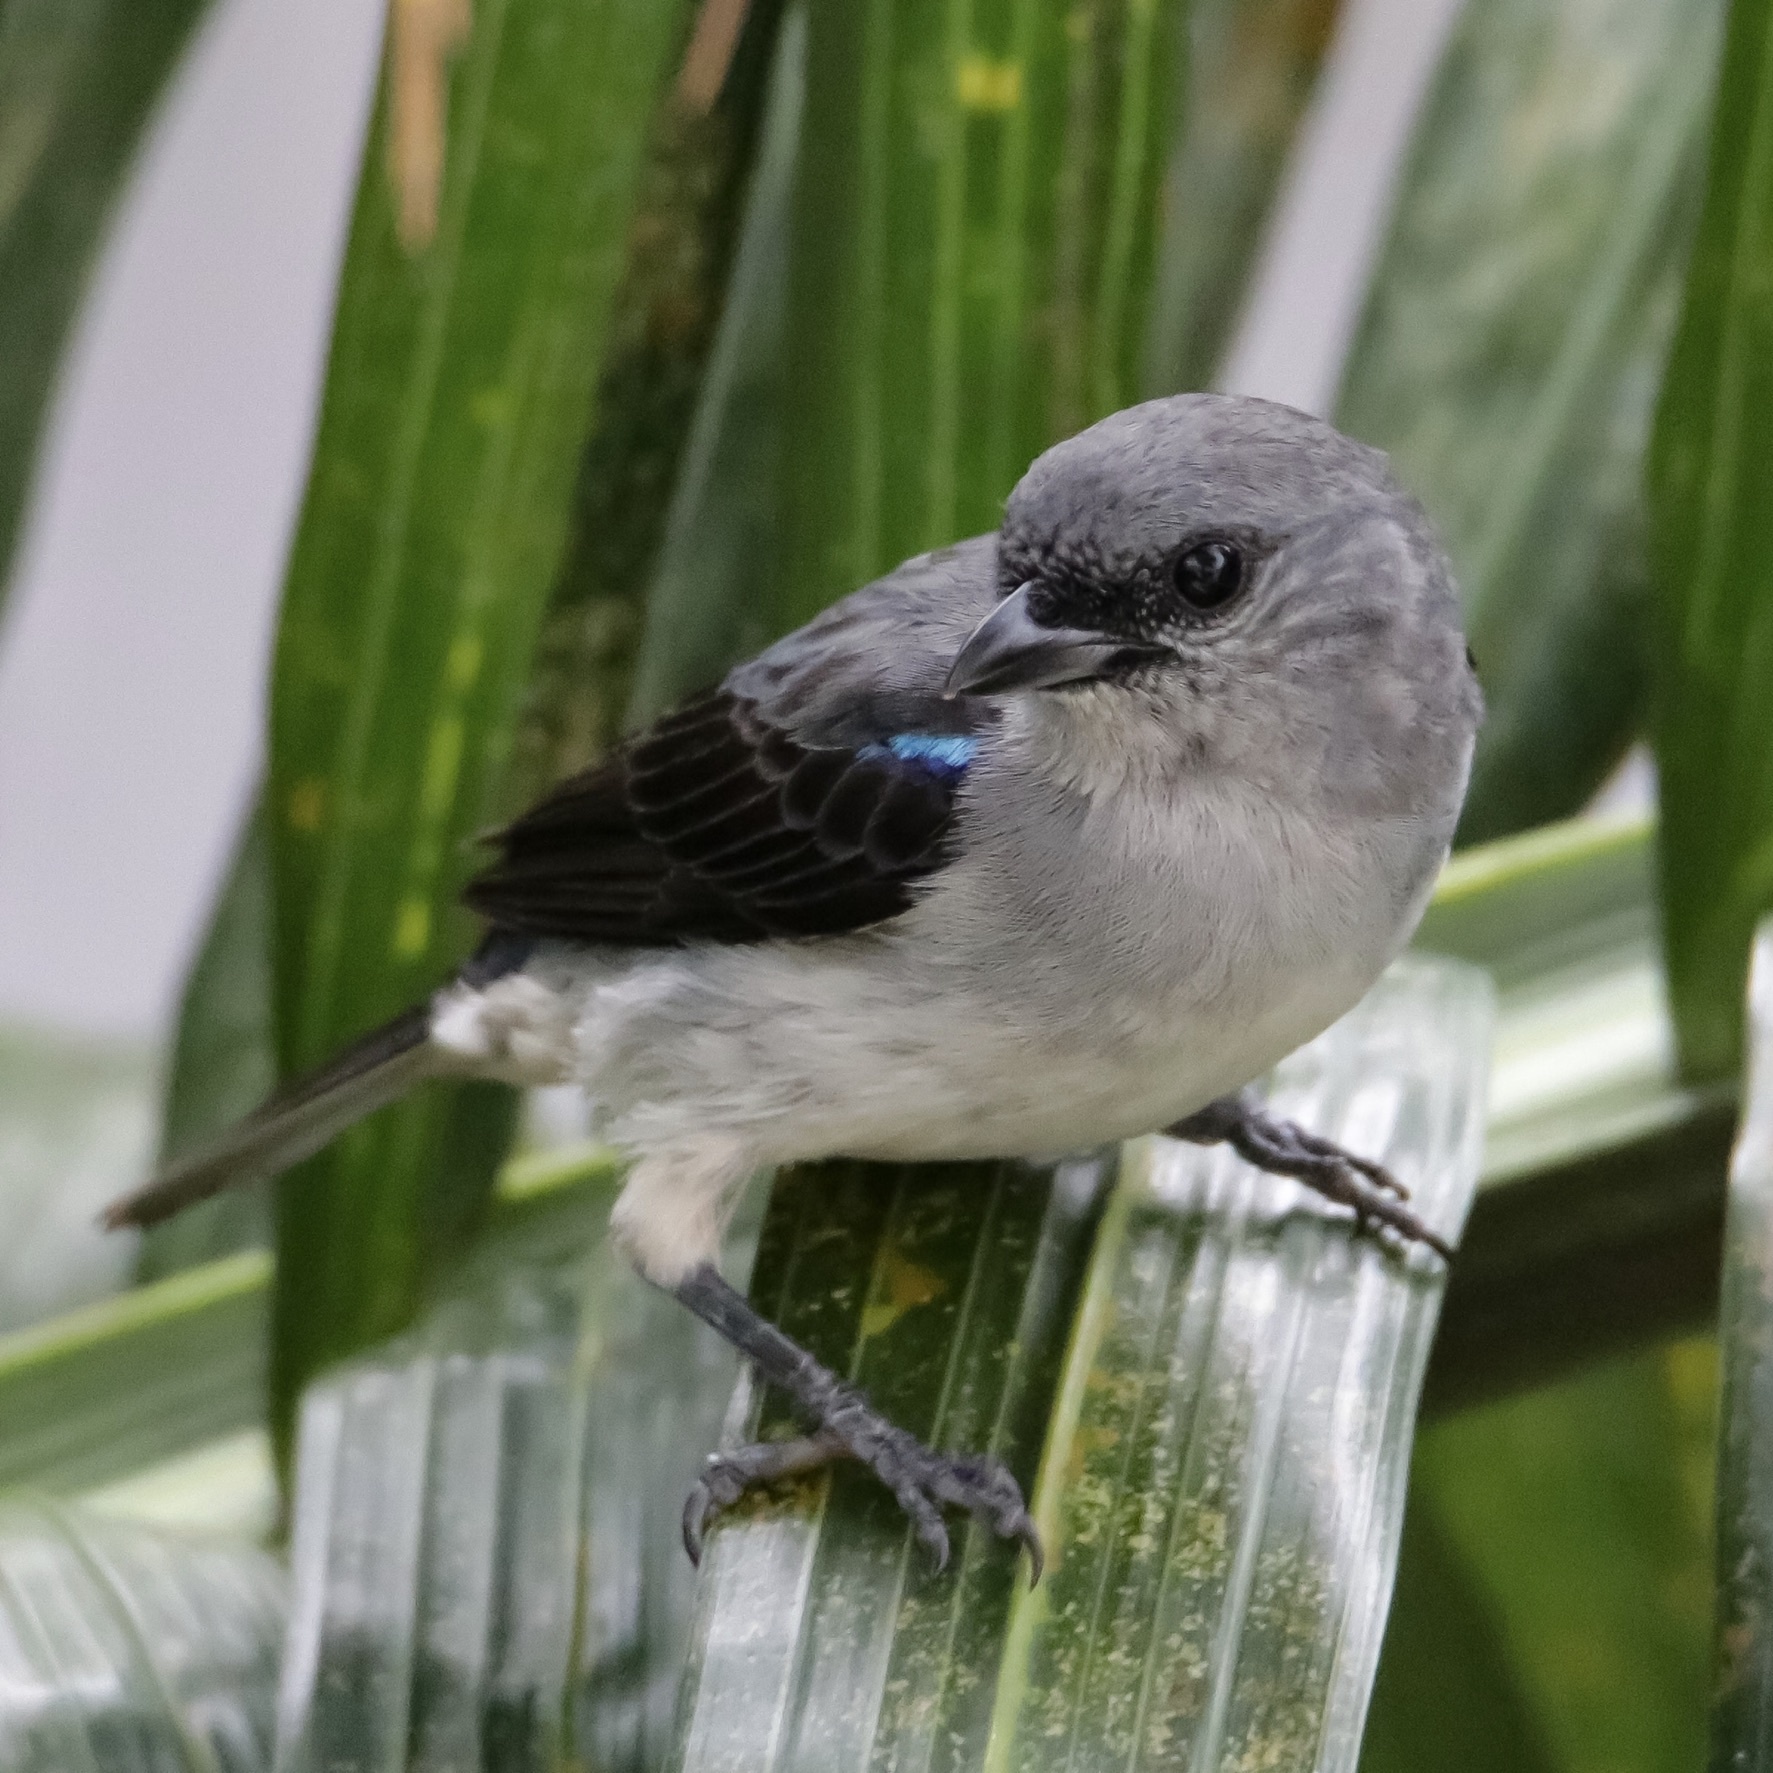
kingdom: Animalia
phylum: Chordata
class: Aves
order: Passeriformes
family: Thraupidae
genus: Tangara
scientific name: Tangara inornata
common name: Plain-colored tanager
